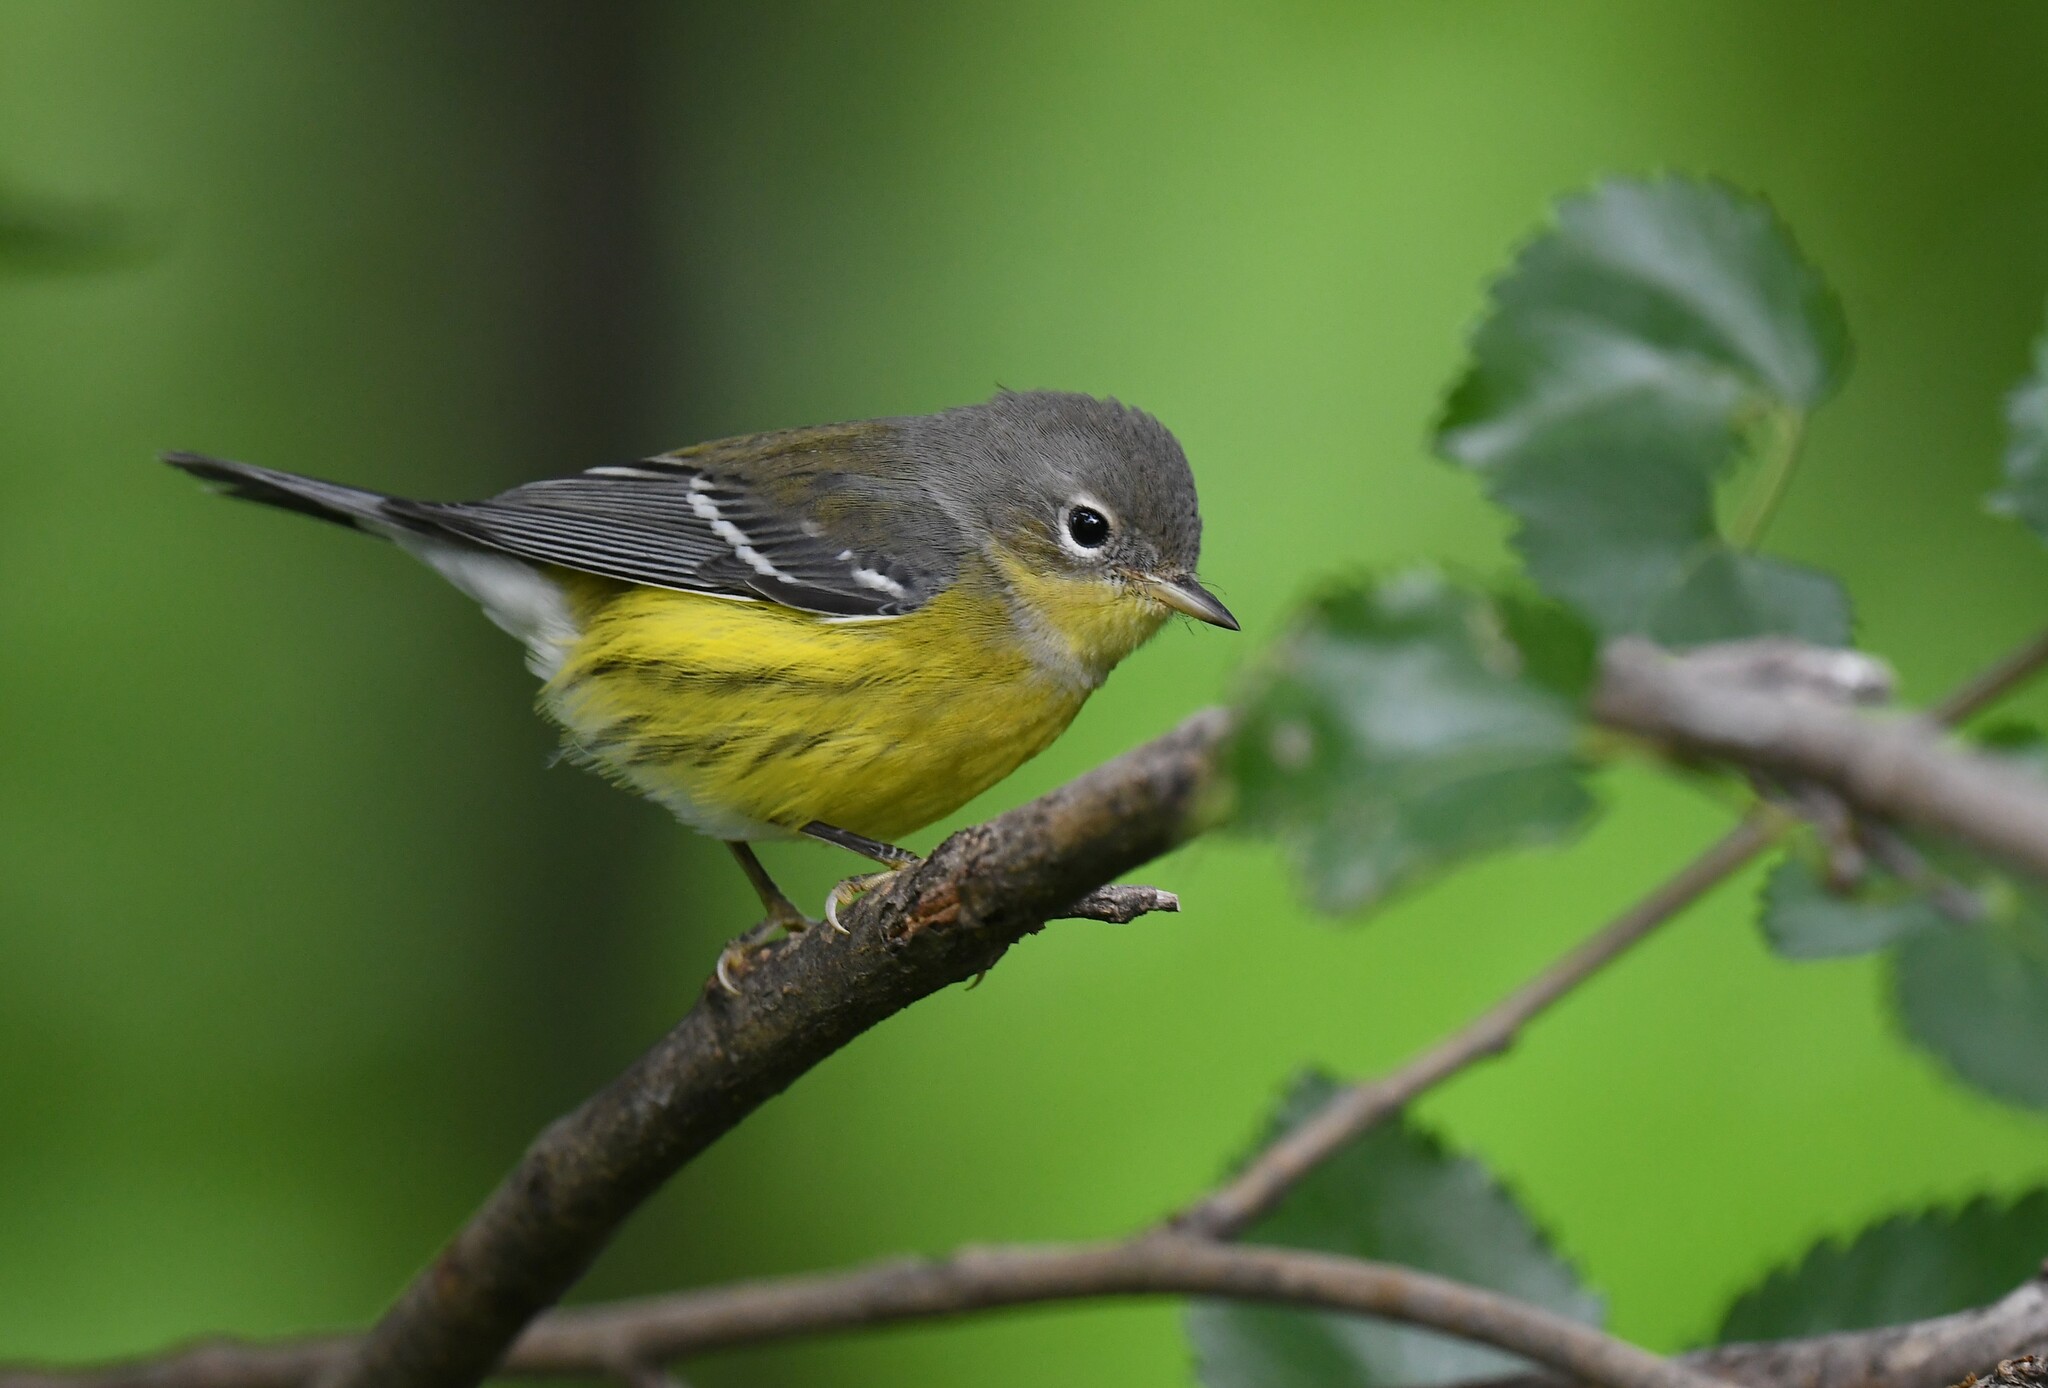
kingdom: Animalia
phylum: Chordata
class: Aves
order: Passeriformes
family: Parulidae
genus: Setophaga
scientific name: Setophaga magnolia
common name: Magnolia warbler
